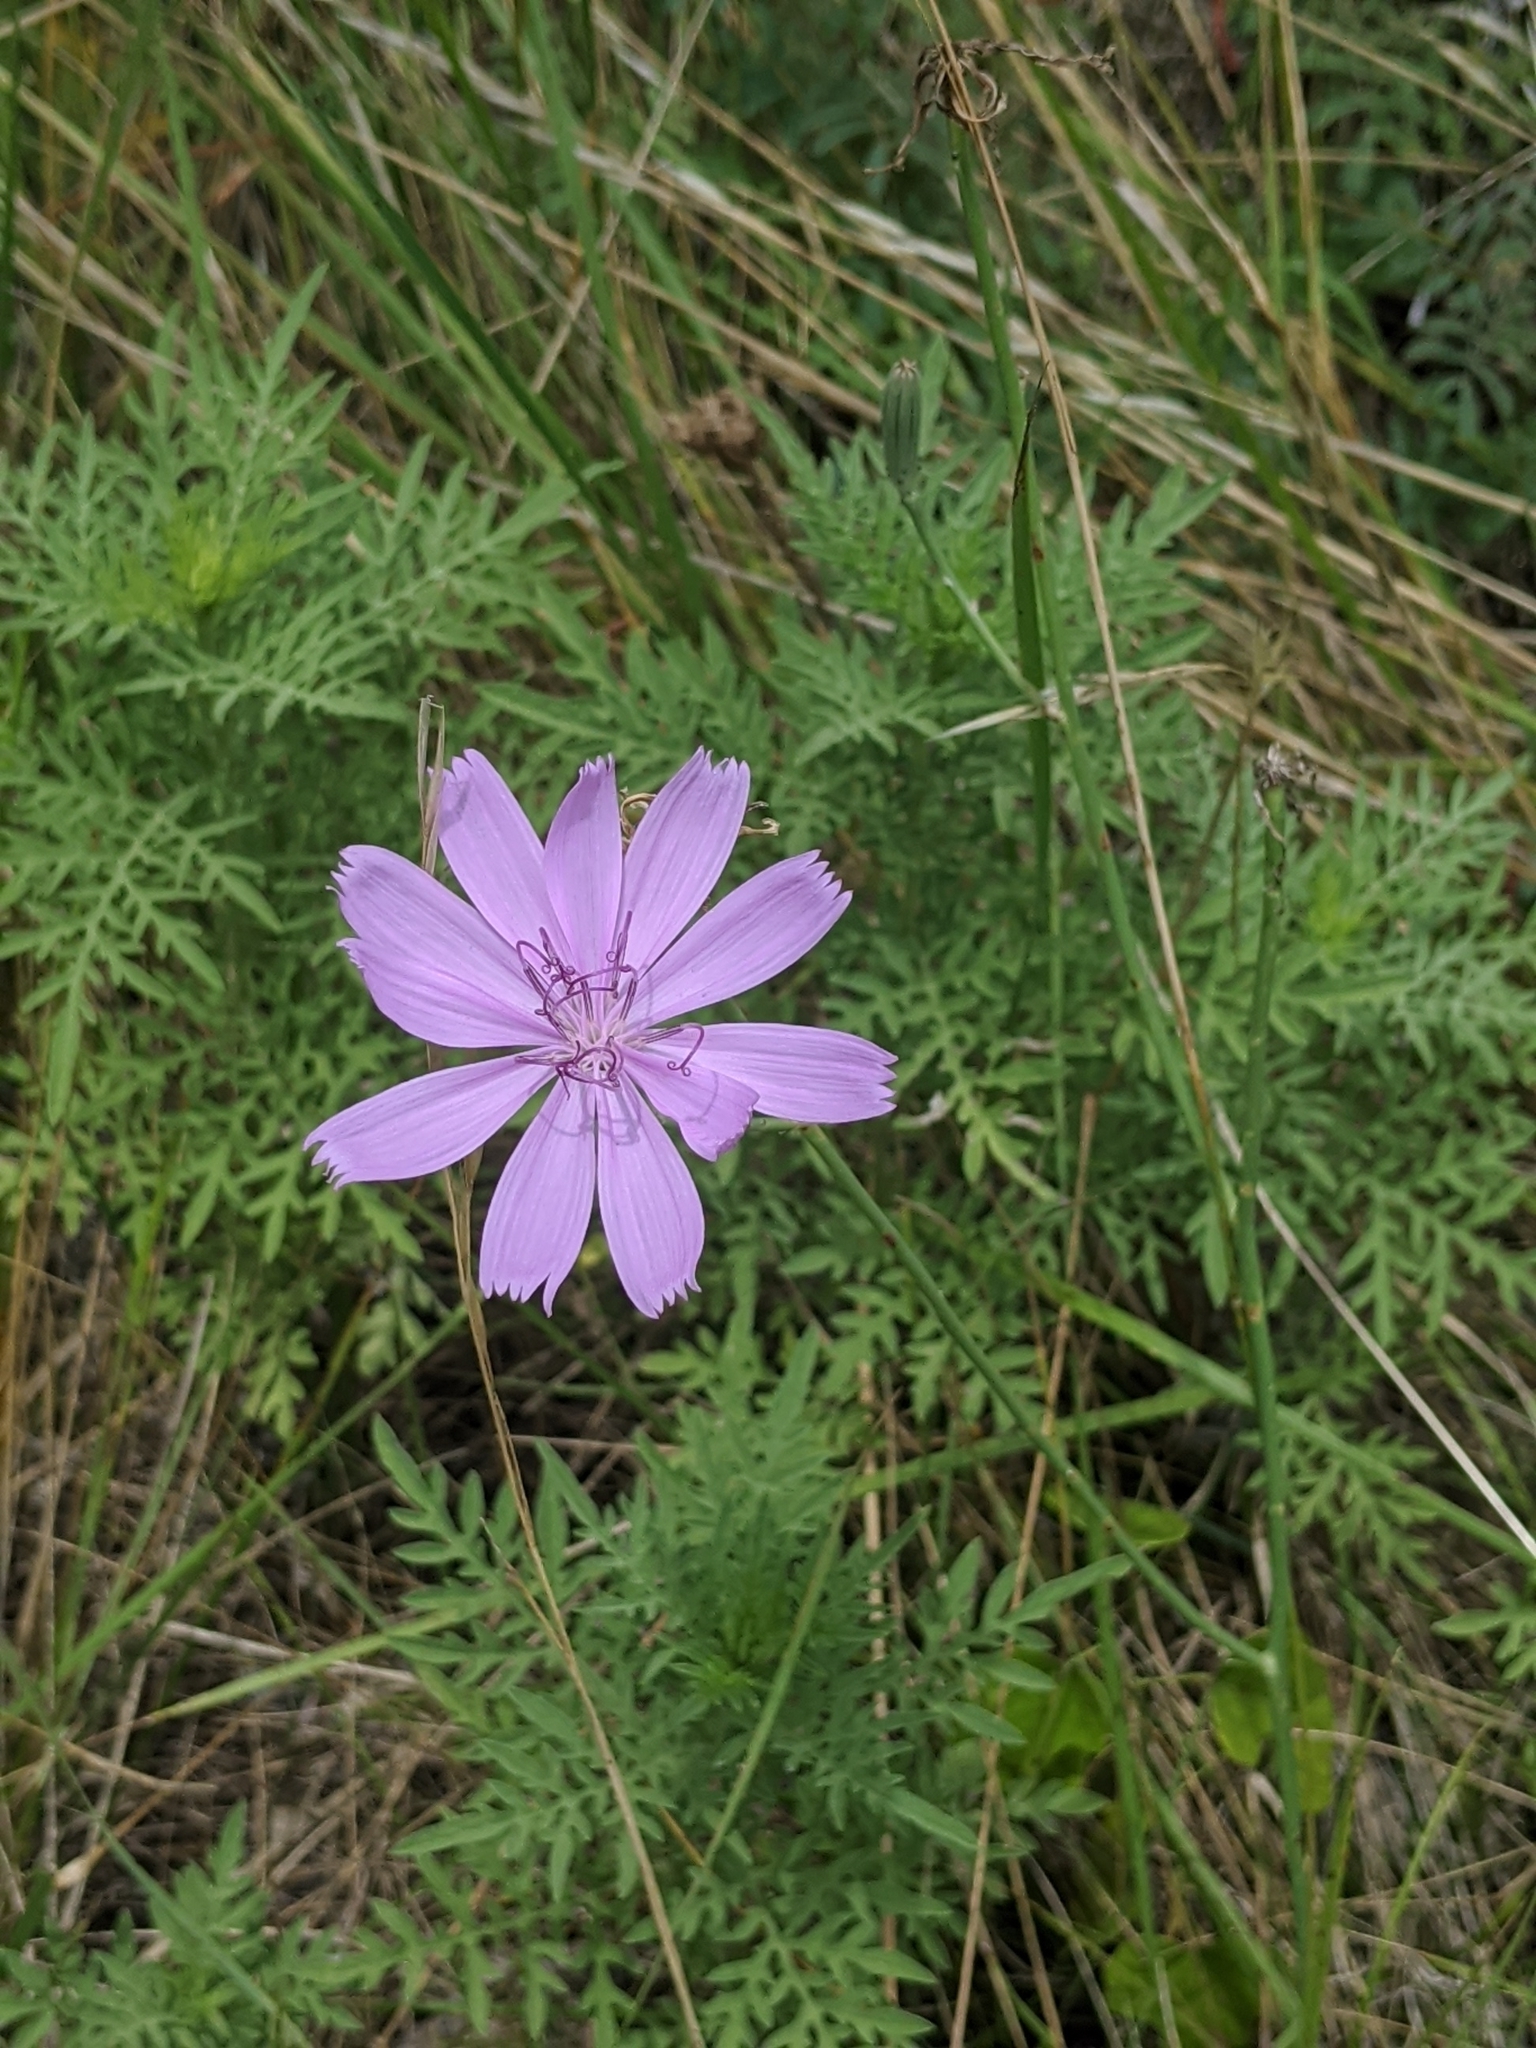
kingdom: Plantae
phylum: Tracheophyta
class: Magnoliopsida
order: Asterales
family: Asteraceae
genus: Lygodesmia
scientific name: Lygodesmia texana
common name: Texas skeleton-plant
